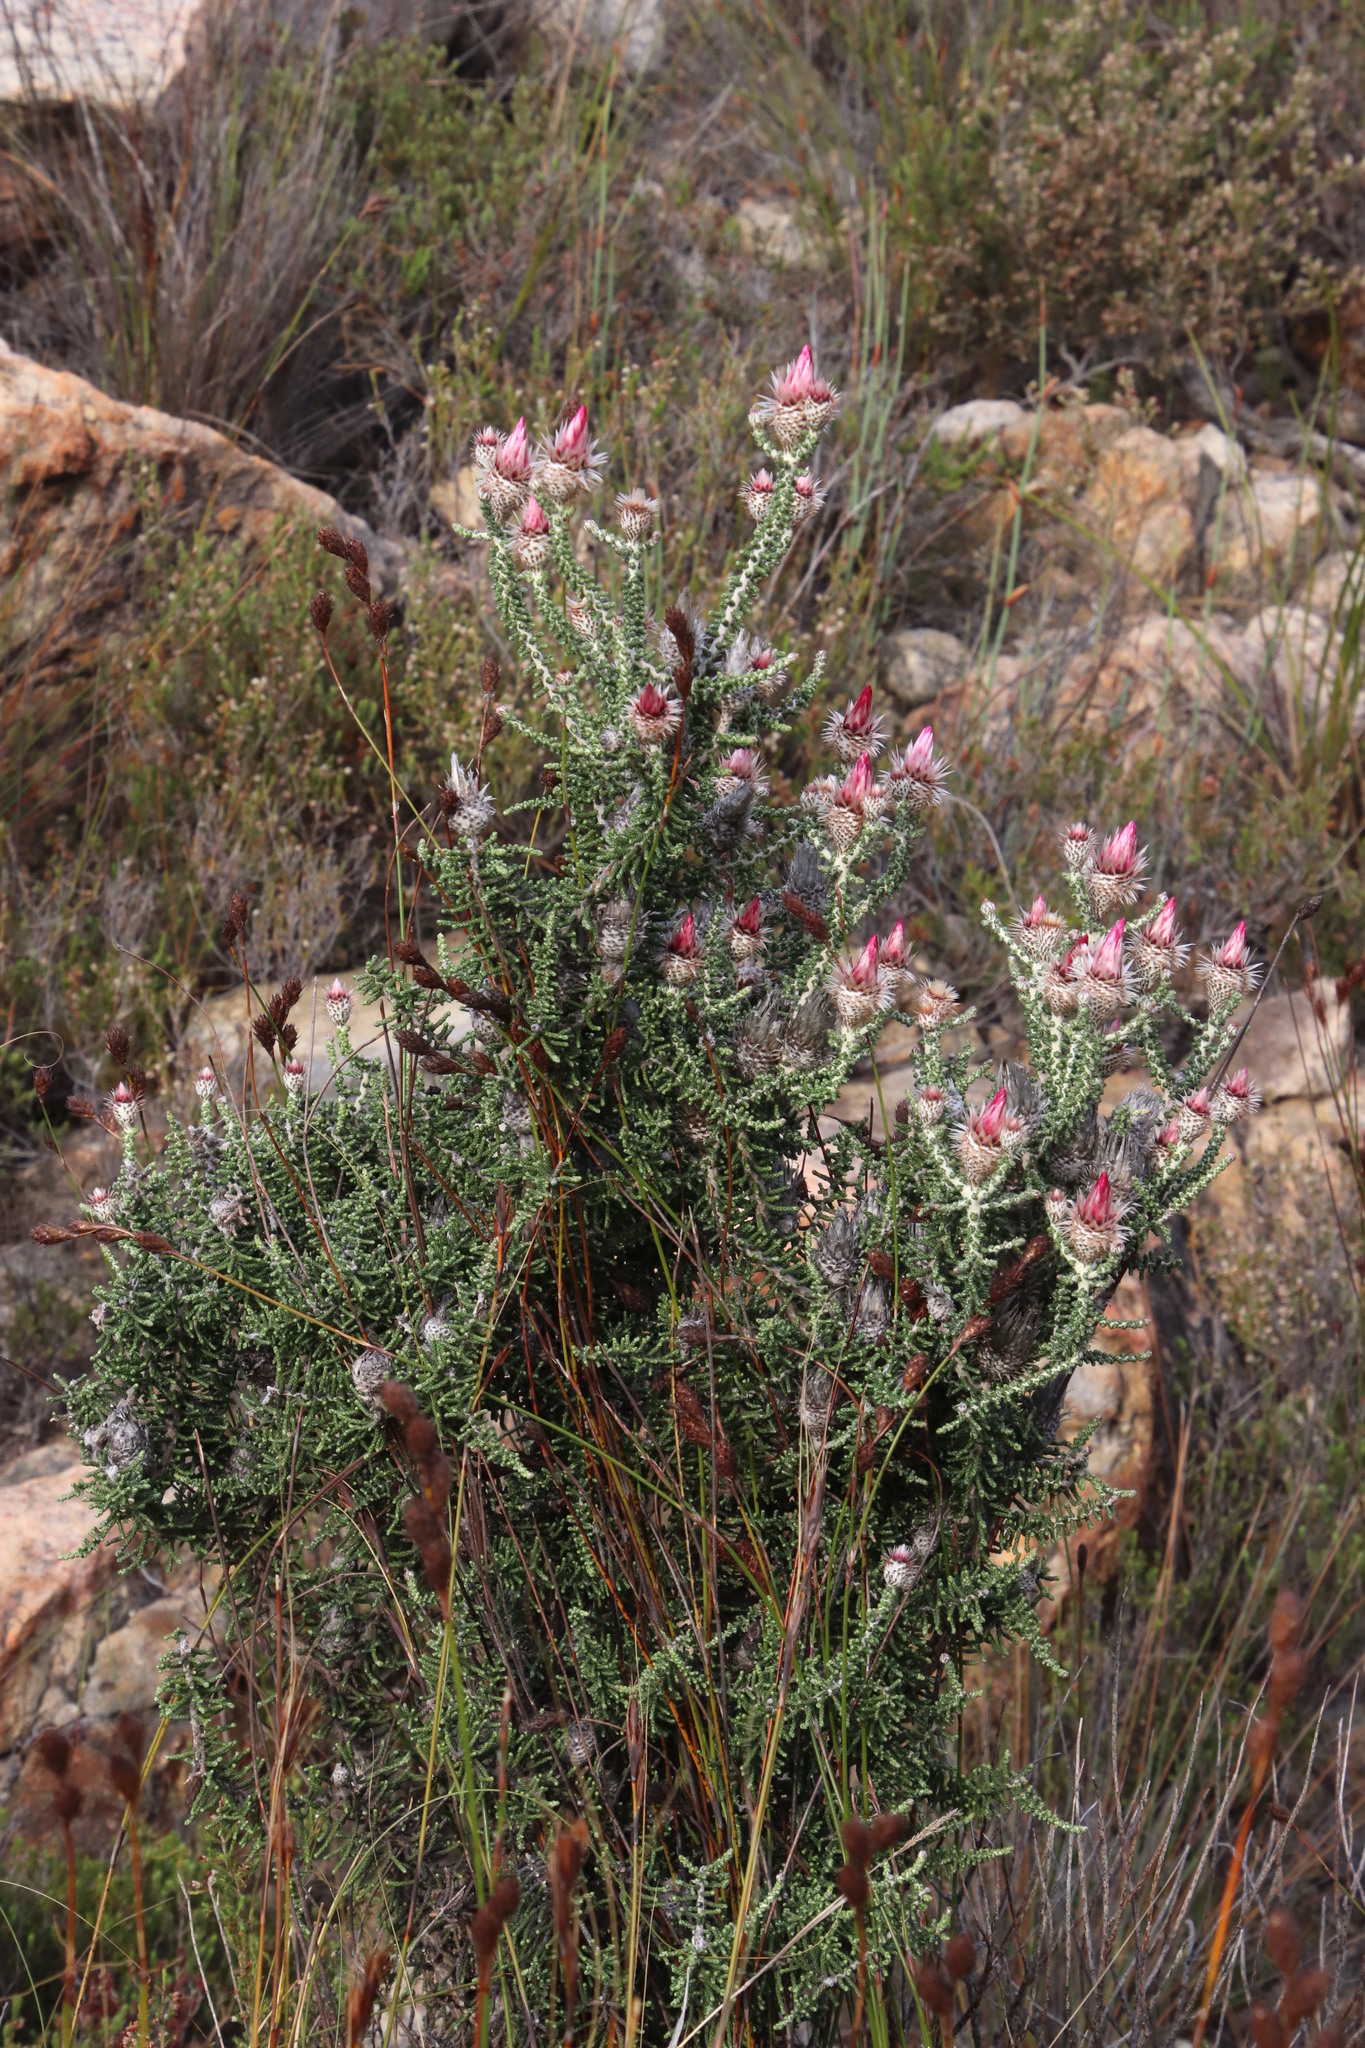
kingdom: Plantae
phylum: Tracheophyta
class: Magnoliopsida
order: Asterales
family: Asteraceae
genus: Phaenocoma
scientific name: Phaenocoma prolifera
